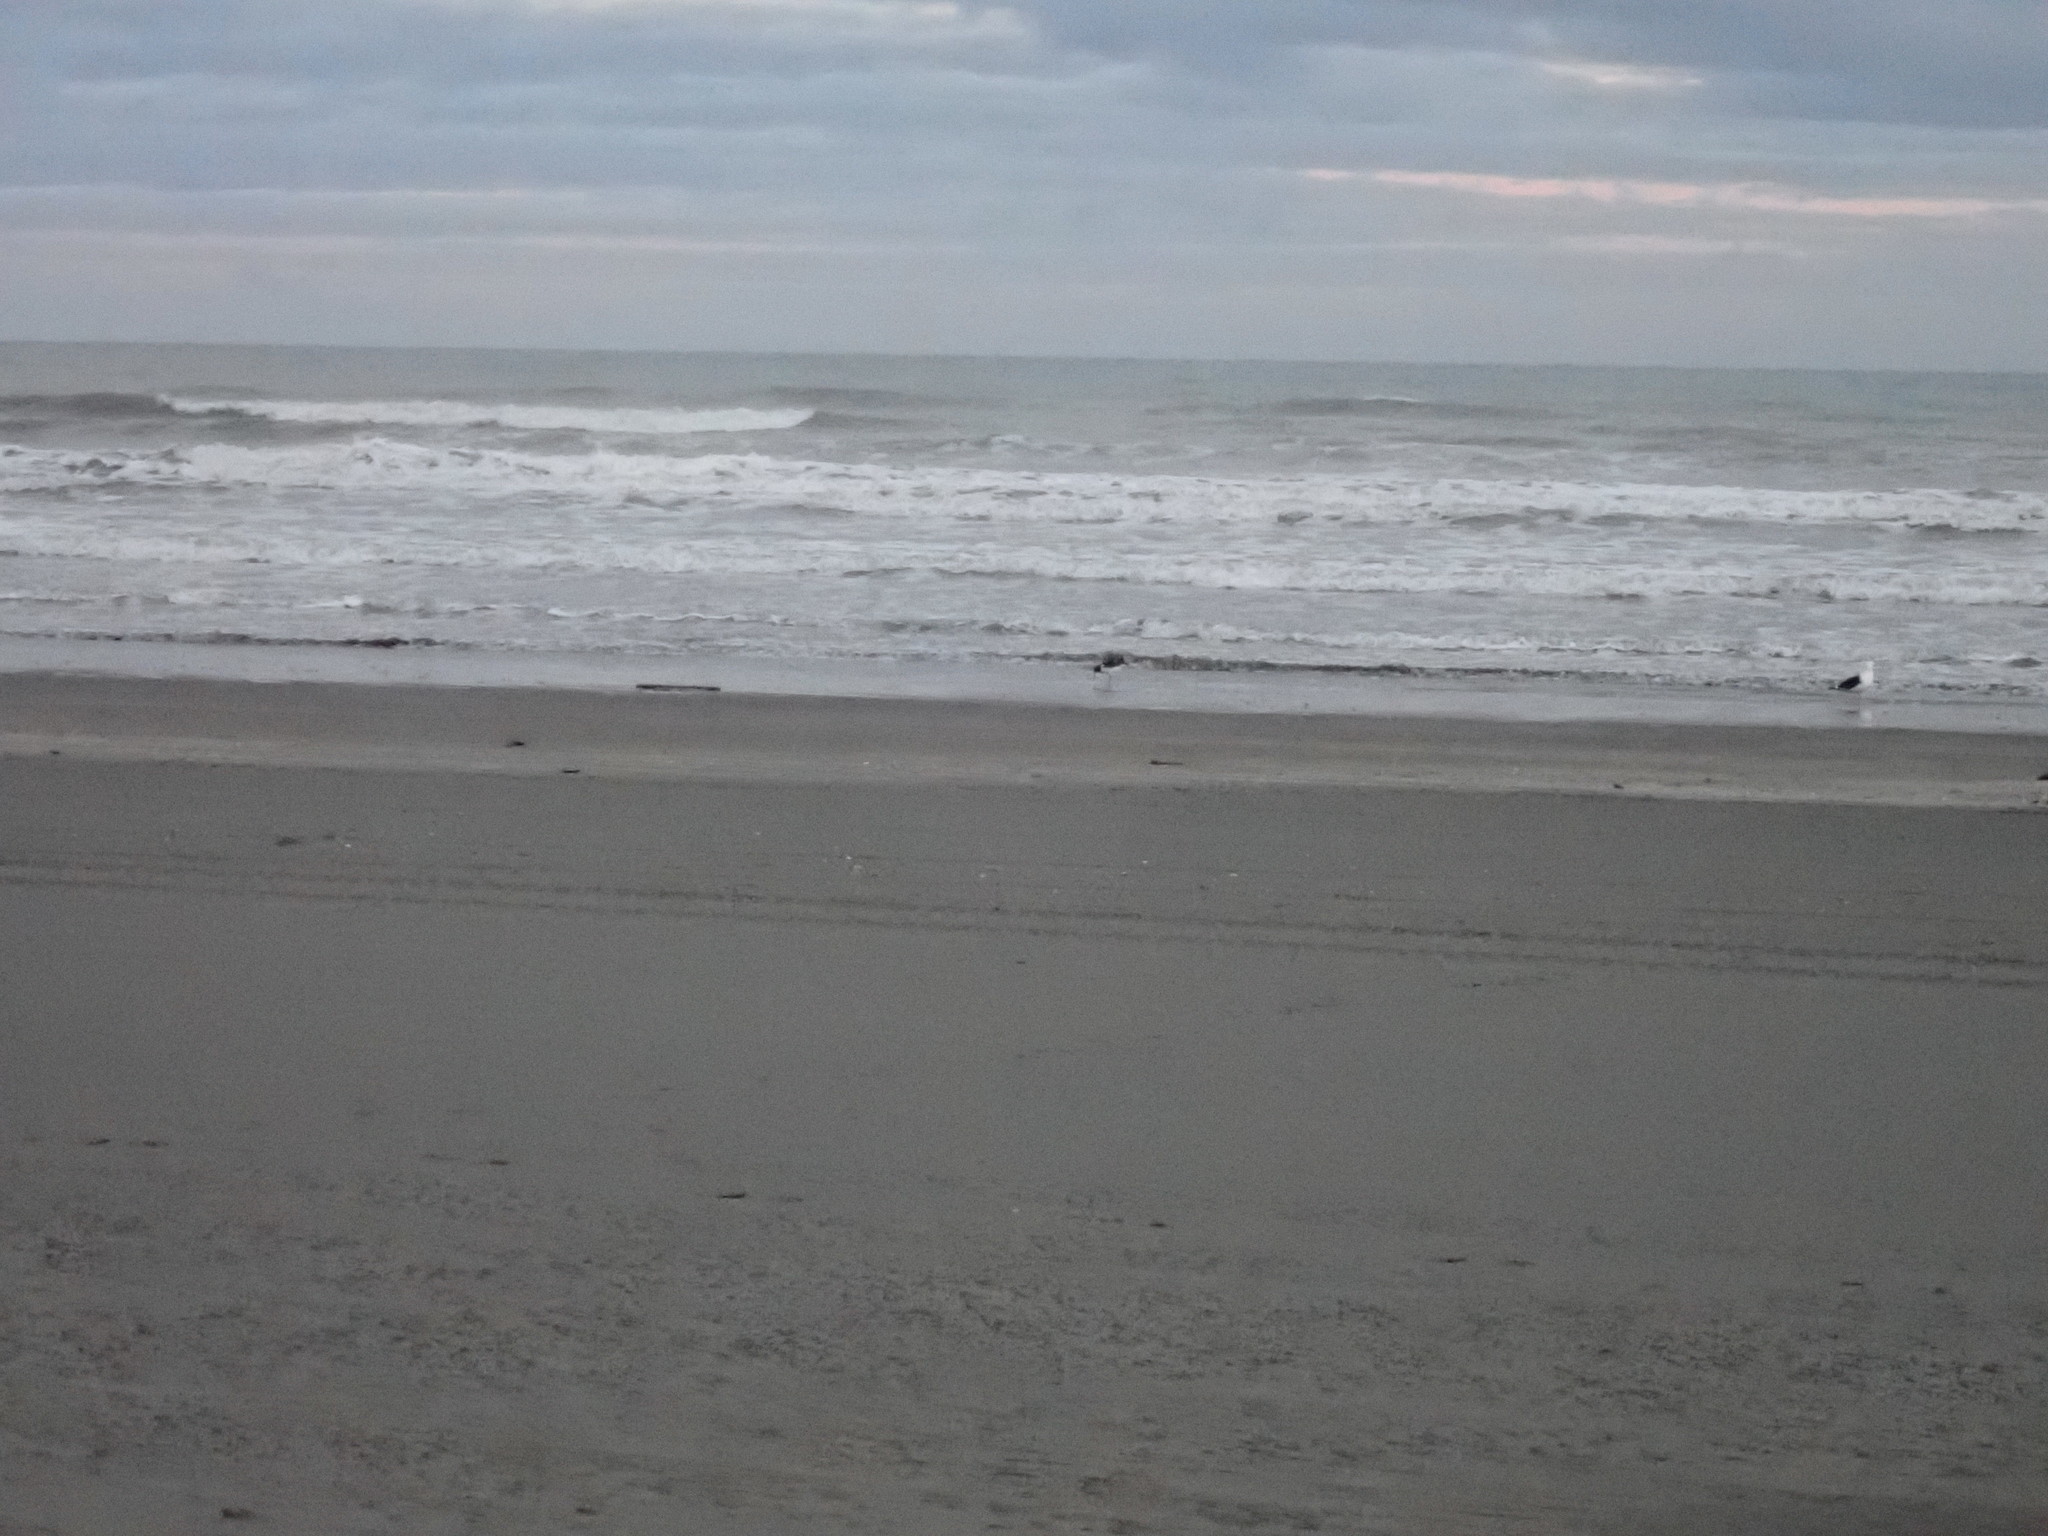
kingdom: Animalia
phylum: Chordata
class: Aves
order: Charadriiformes
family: Haematopodidae
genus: Haematopus
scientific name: Haematopus finschi
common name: South island oystercatcher
